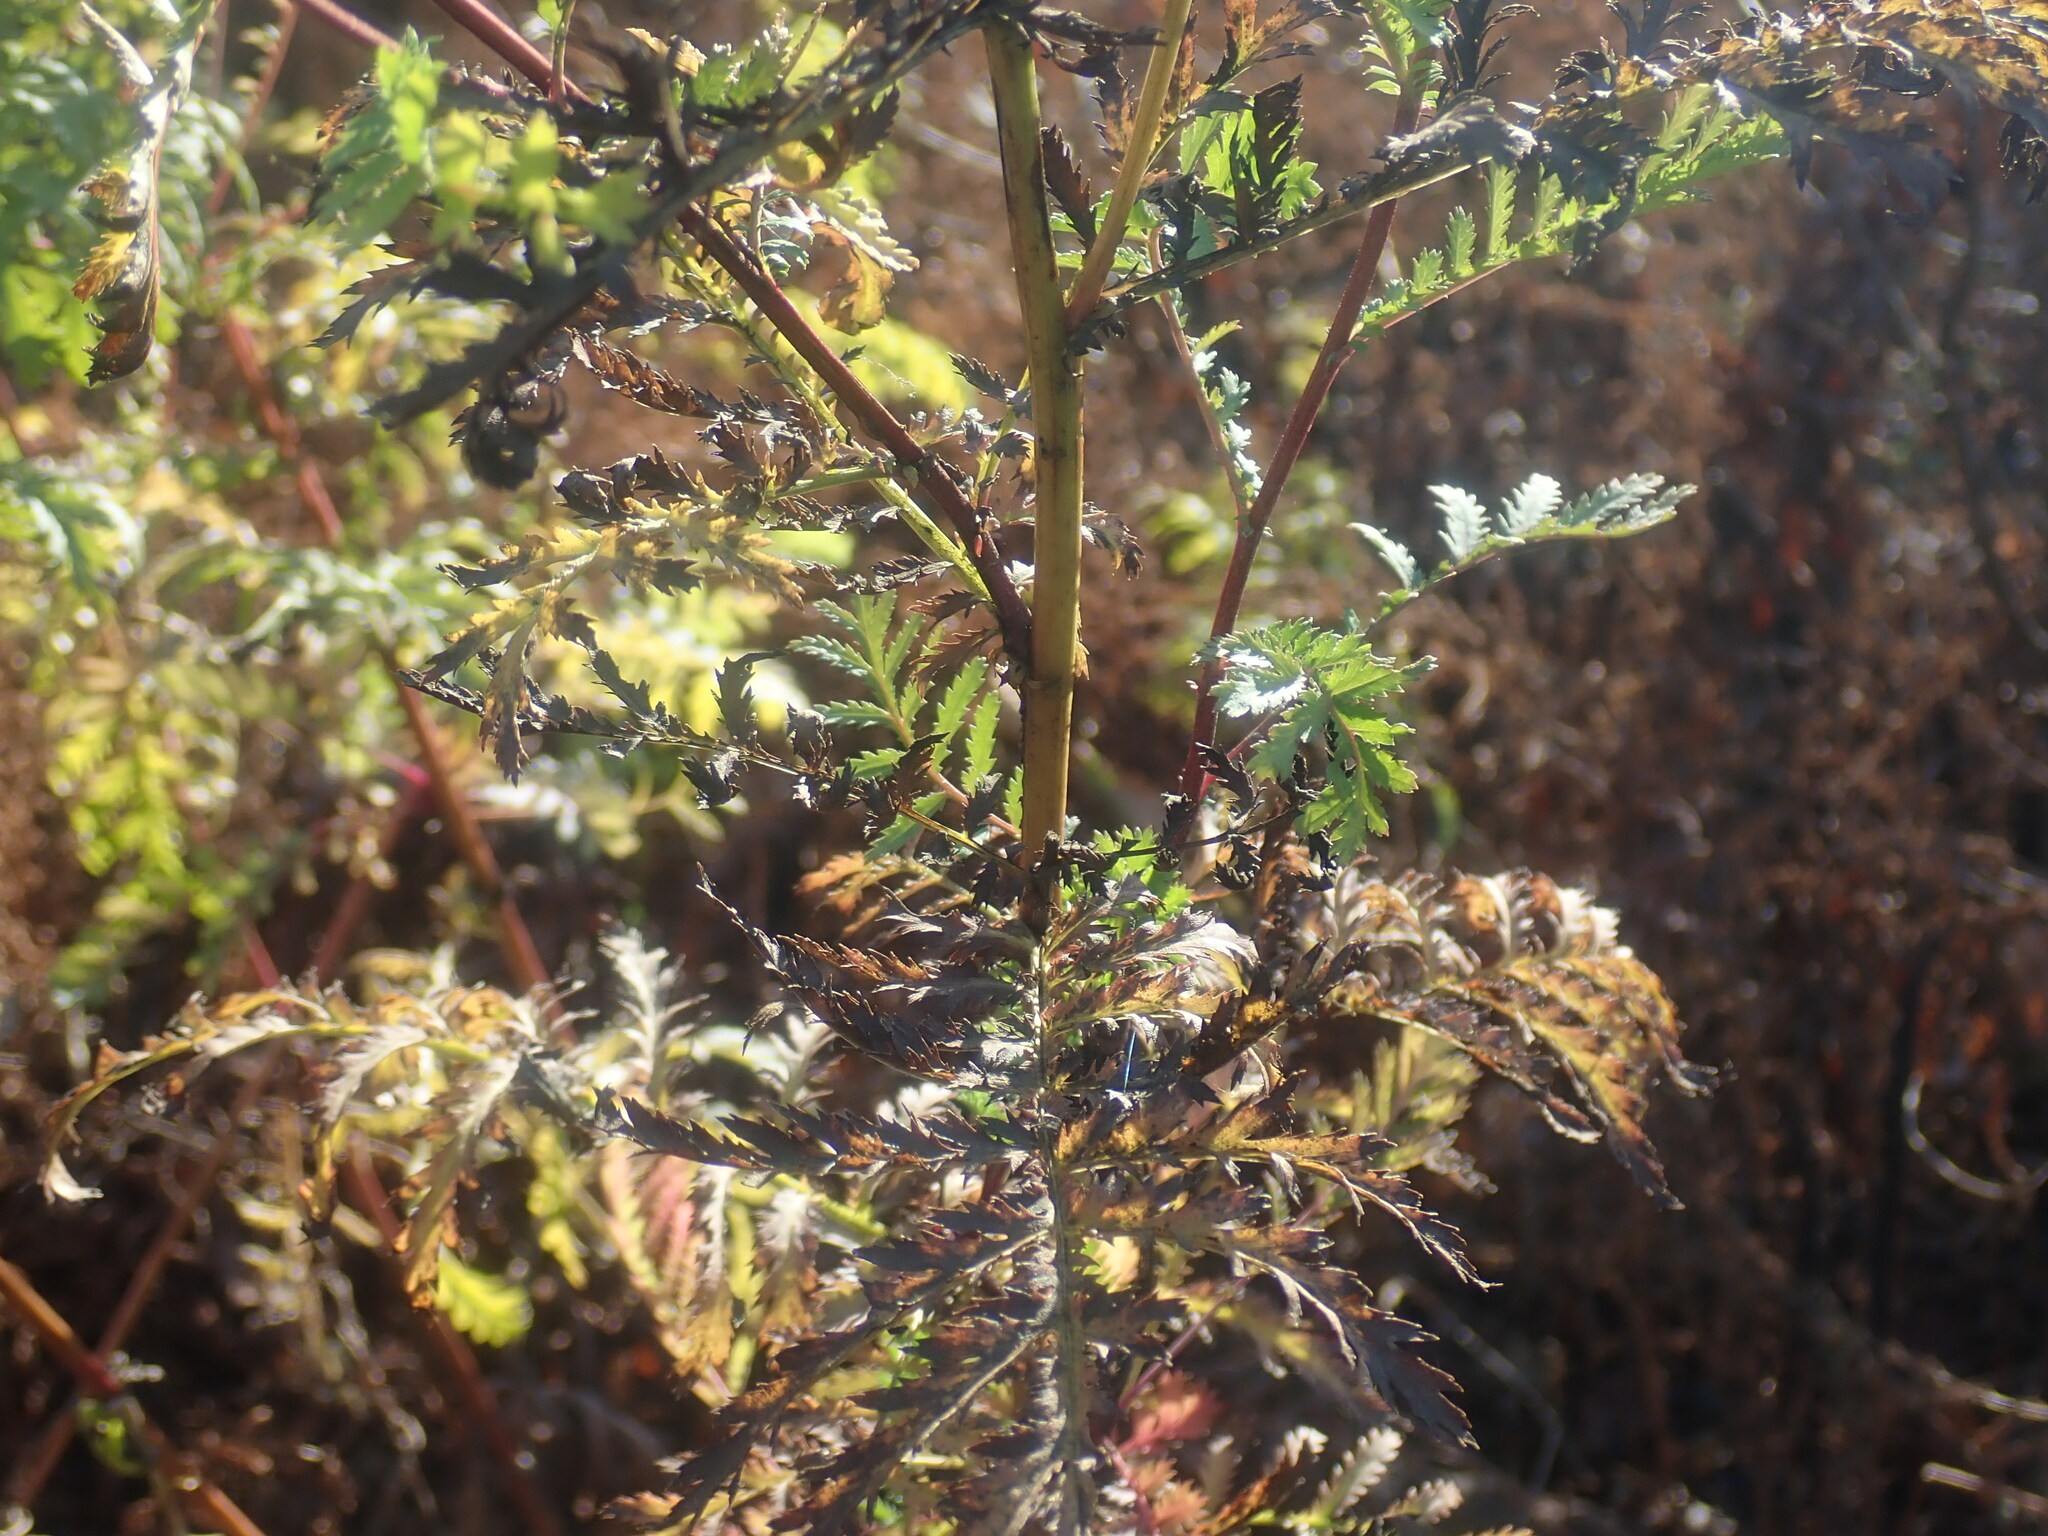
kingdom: Plantae
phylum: Tracheophyta
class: Magnoliopsida
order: Asterales
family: Asteraceae
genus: Tanacetum
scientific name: Tanacetum vulgare
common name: Common tansy
